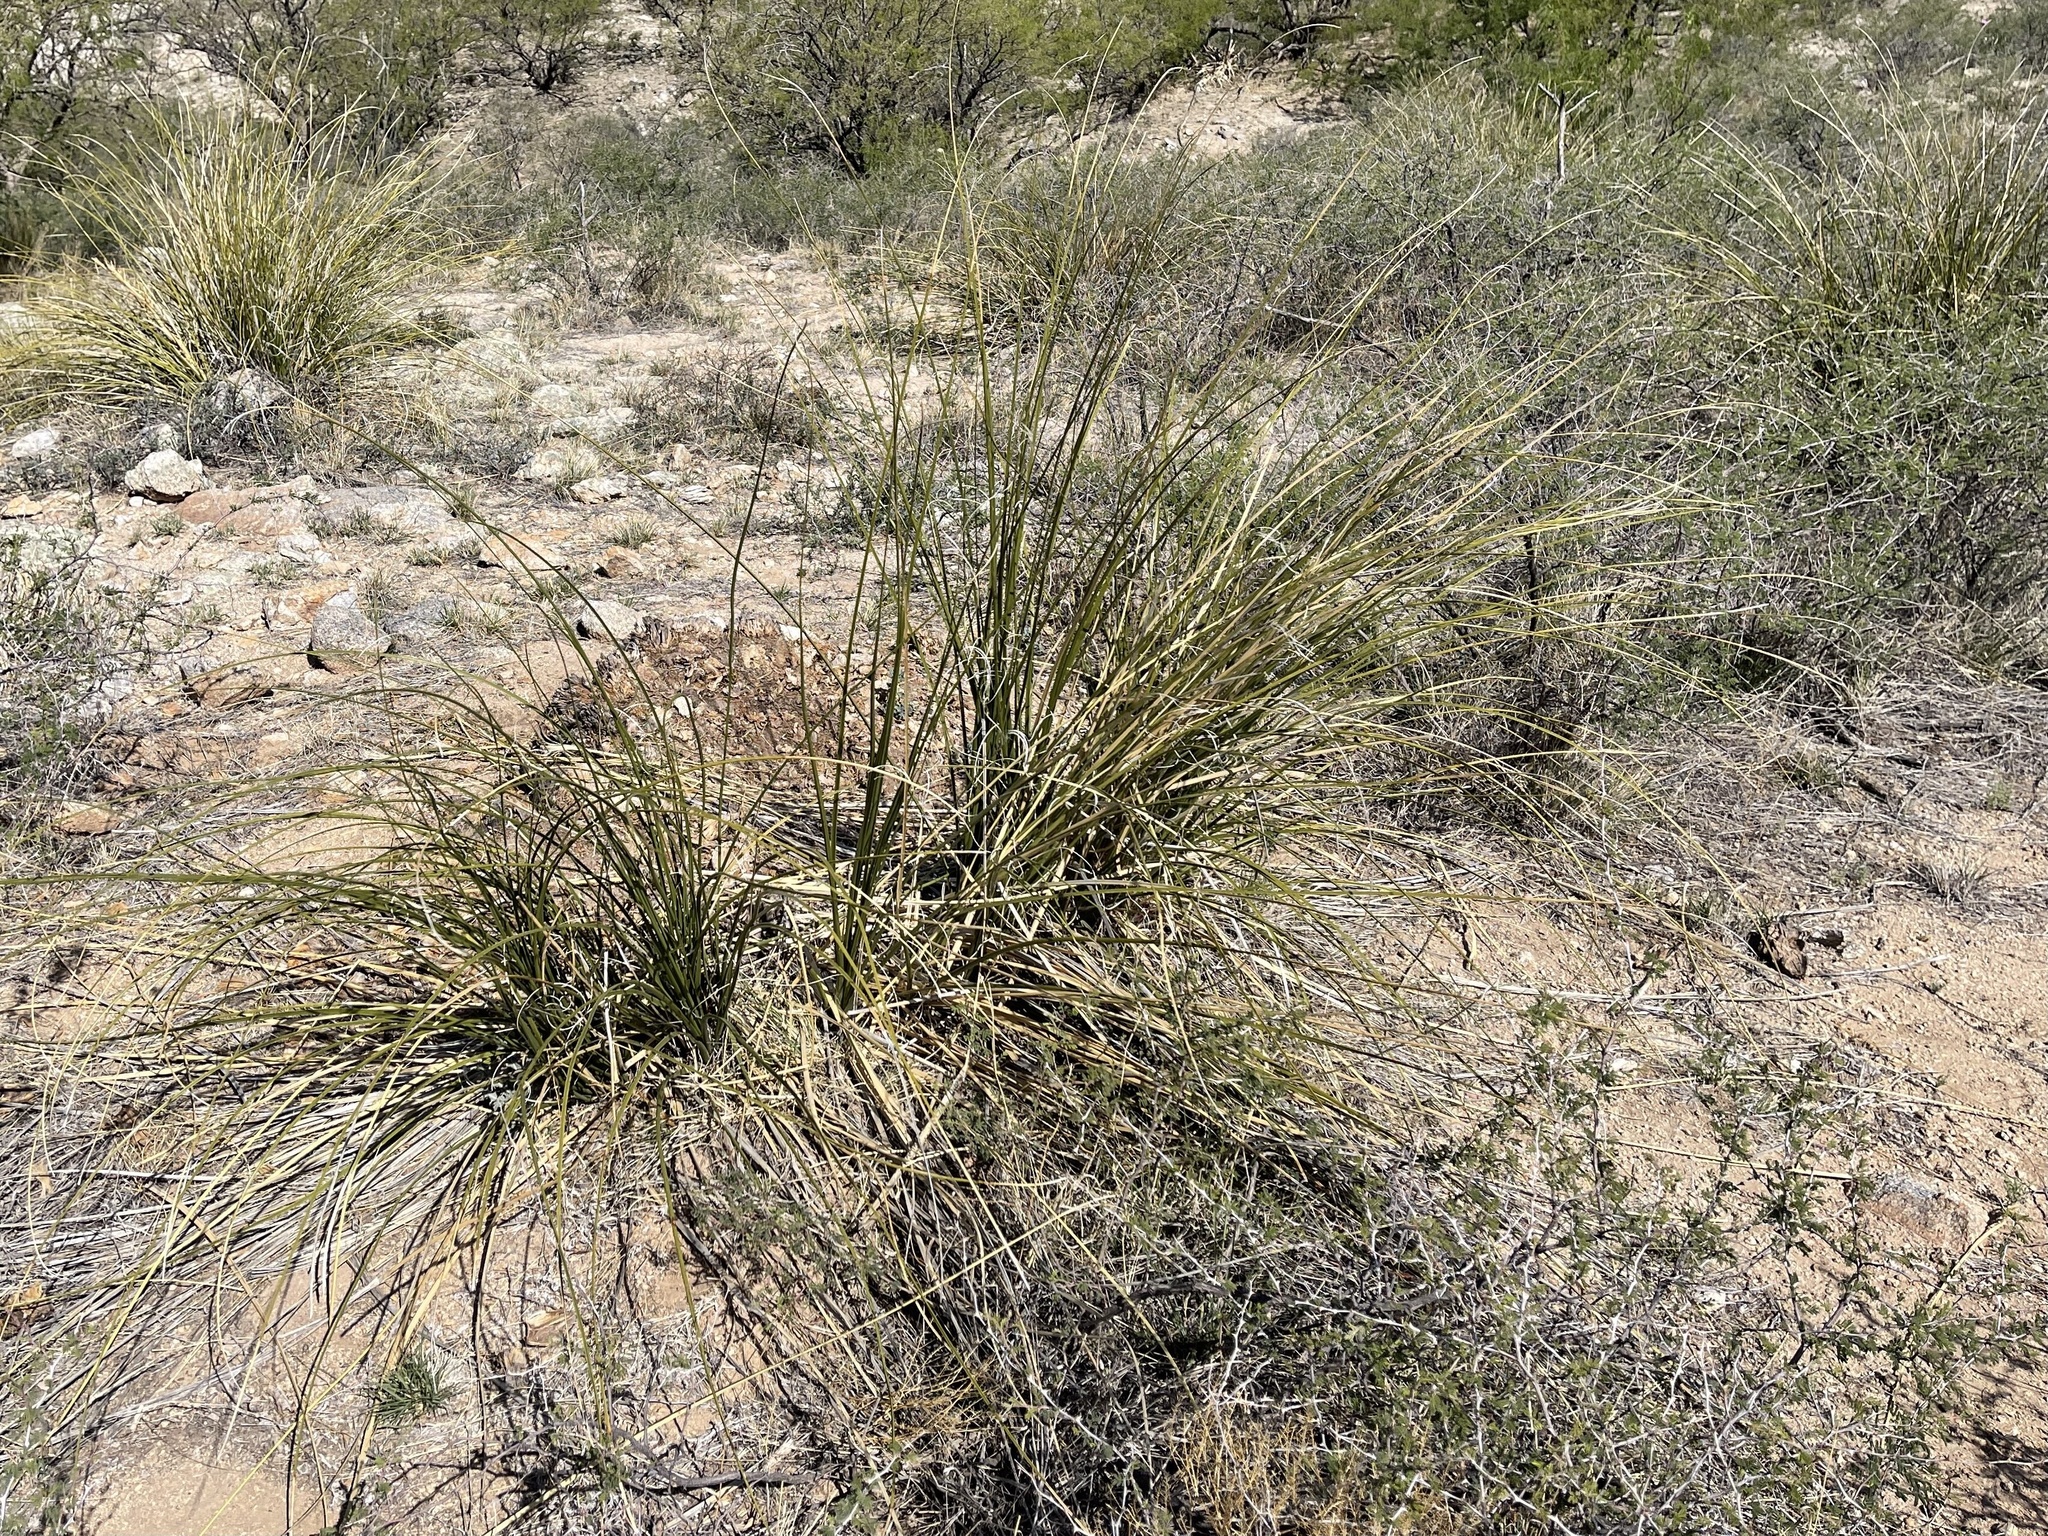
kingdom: Plantae
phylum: Tracheophyta
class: Liliopsida
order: Asparagales
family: Asparagaceae
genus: Nolina
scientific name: Nolina microcarpa
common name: Bear-grass
